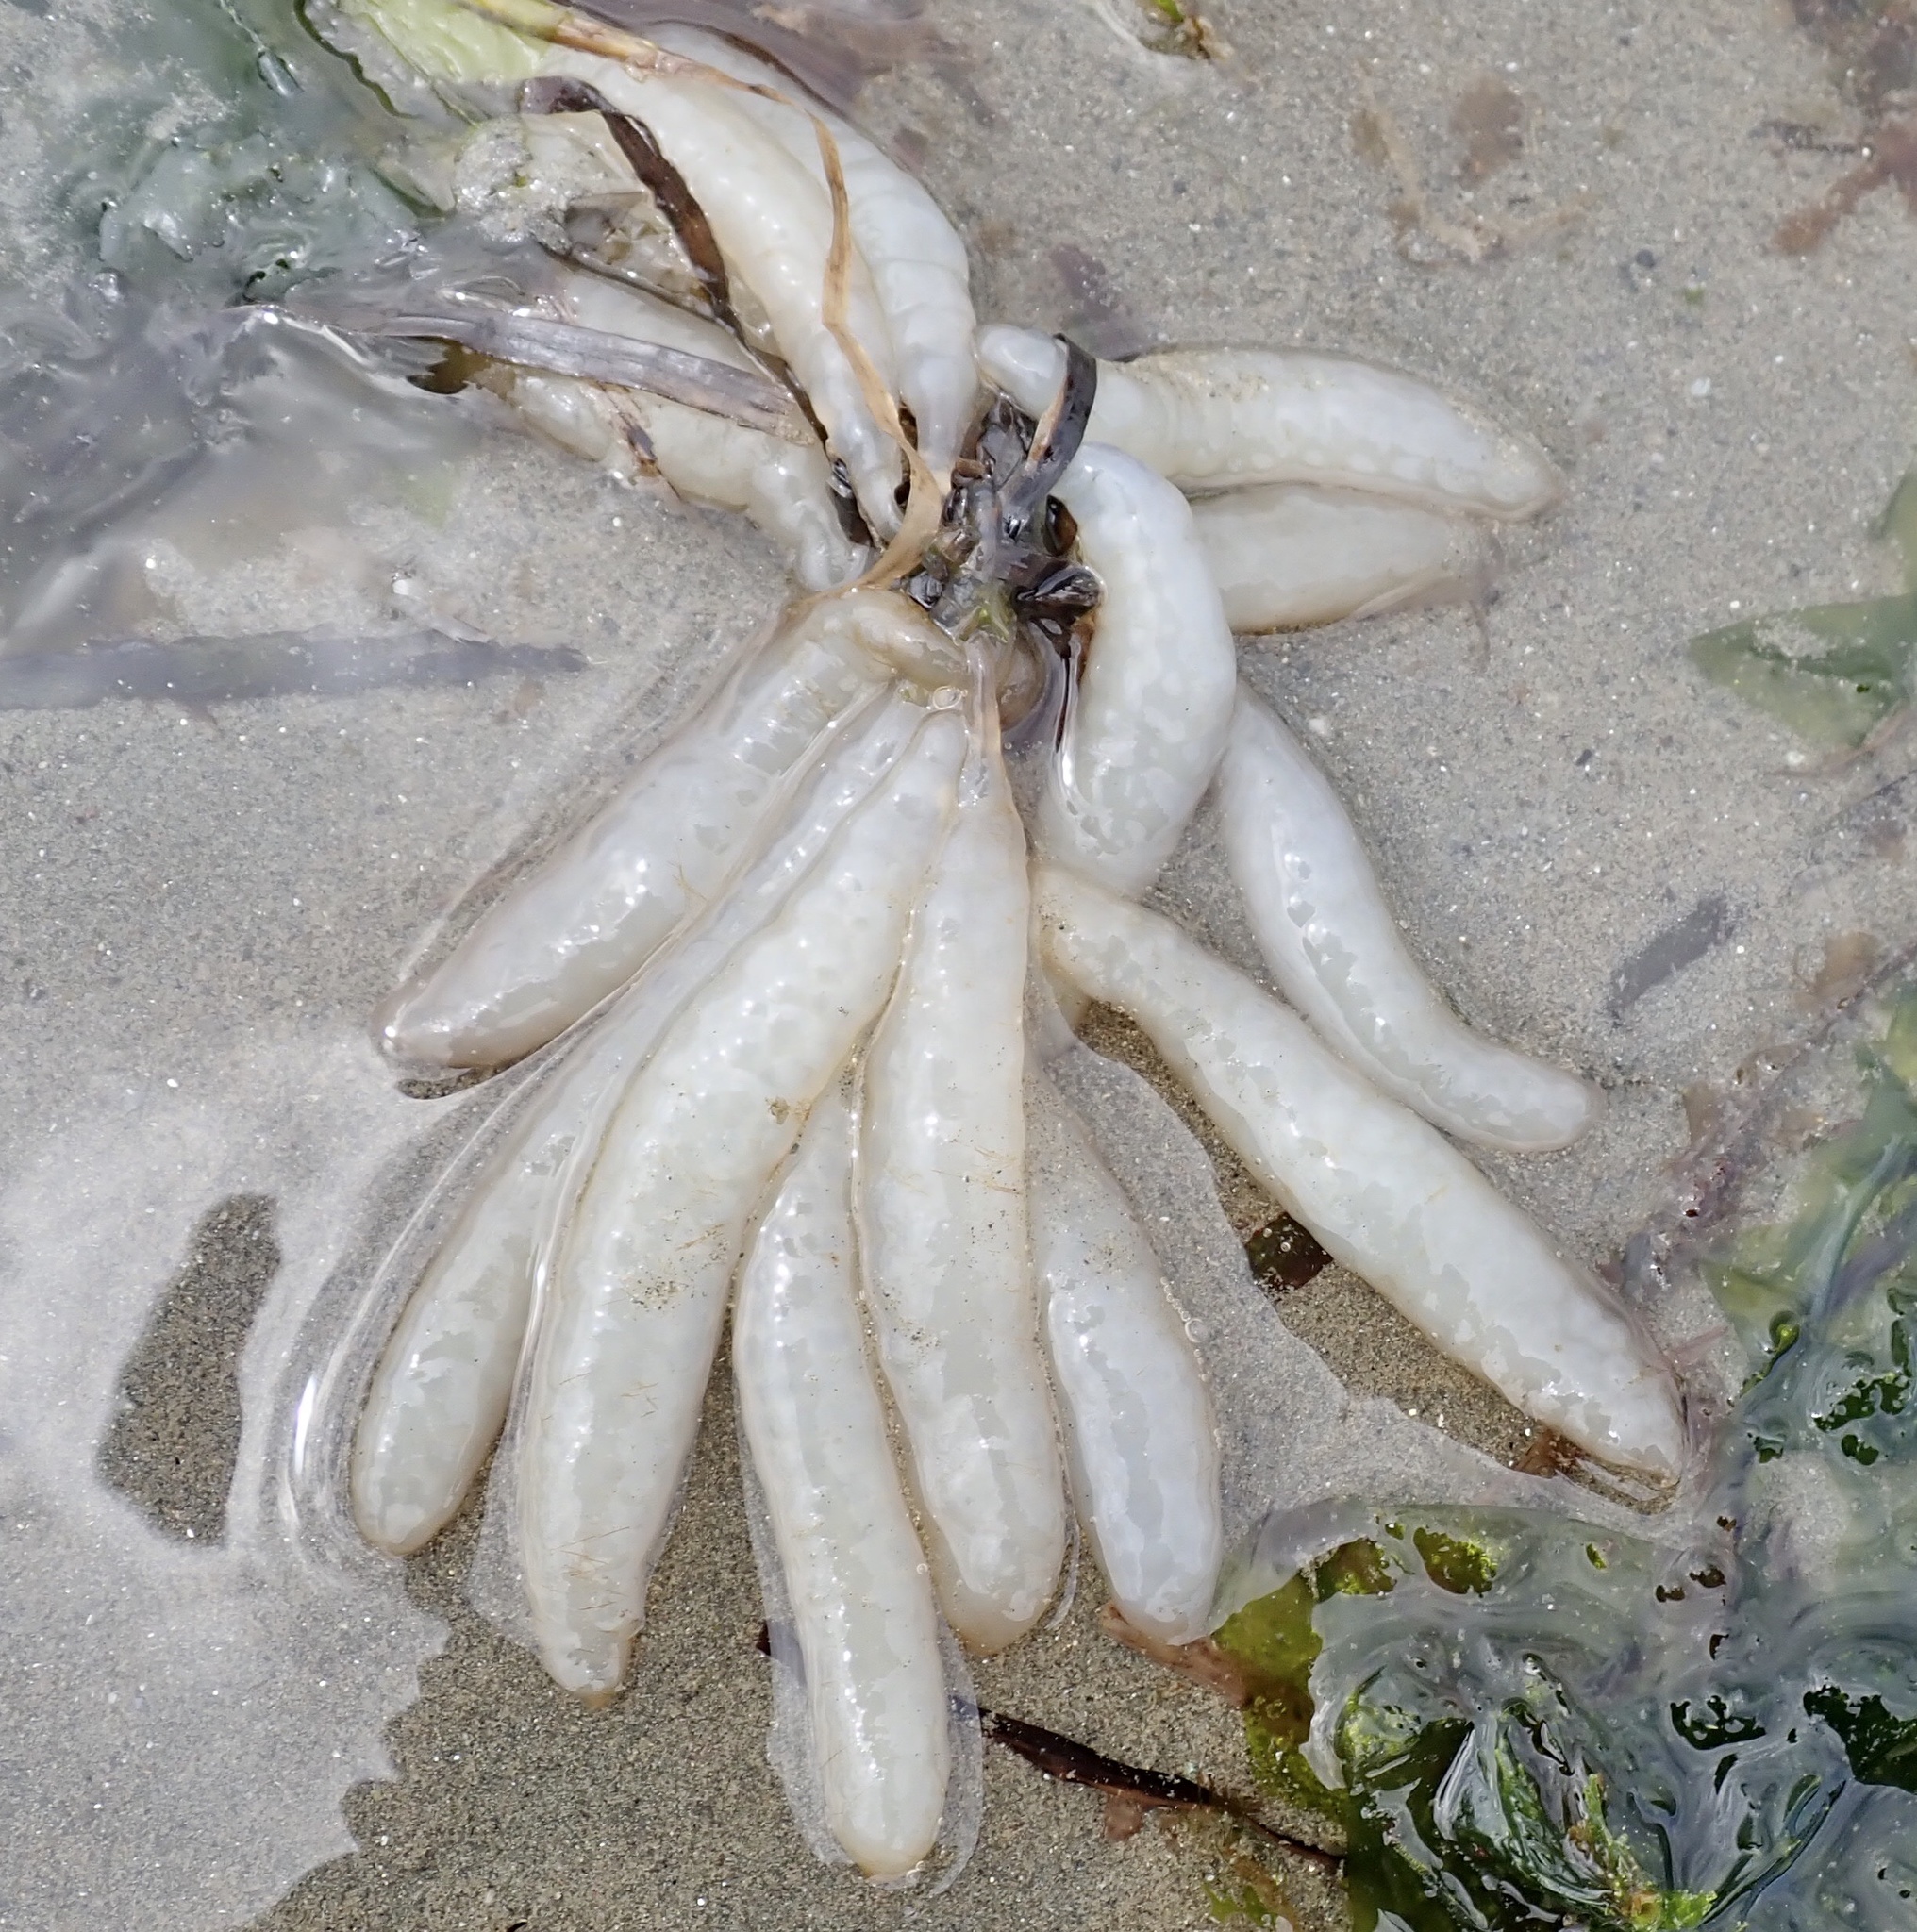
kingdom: Animalia
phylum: Mollusca
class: Cephalopoda
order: Myopsida
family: Loliginidae
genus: Doryteuthis
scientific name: Doryteuthis opalescens
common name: Opalescent inshore squid
